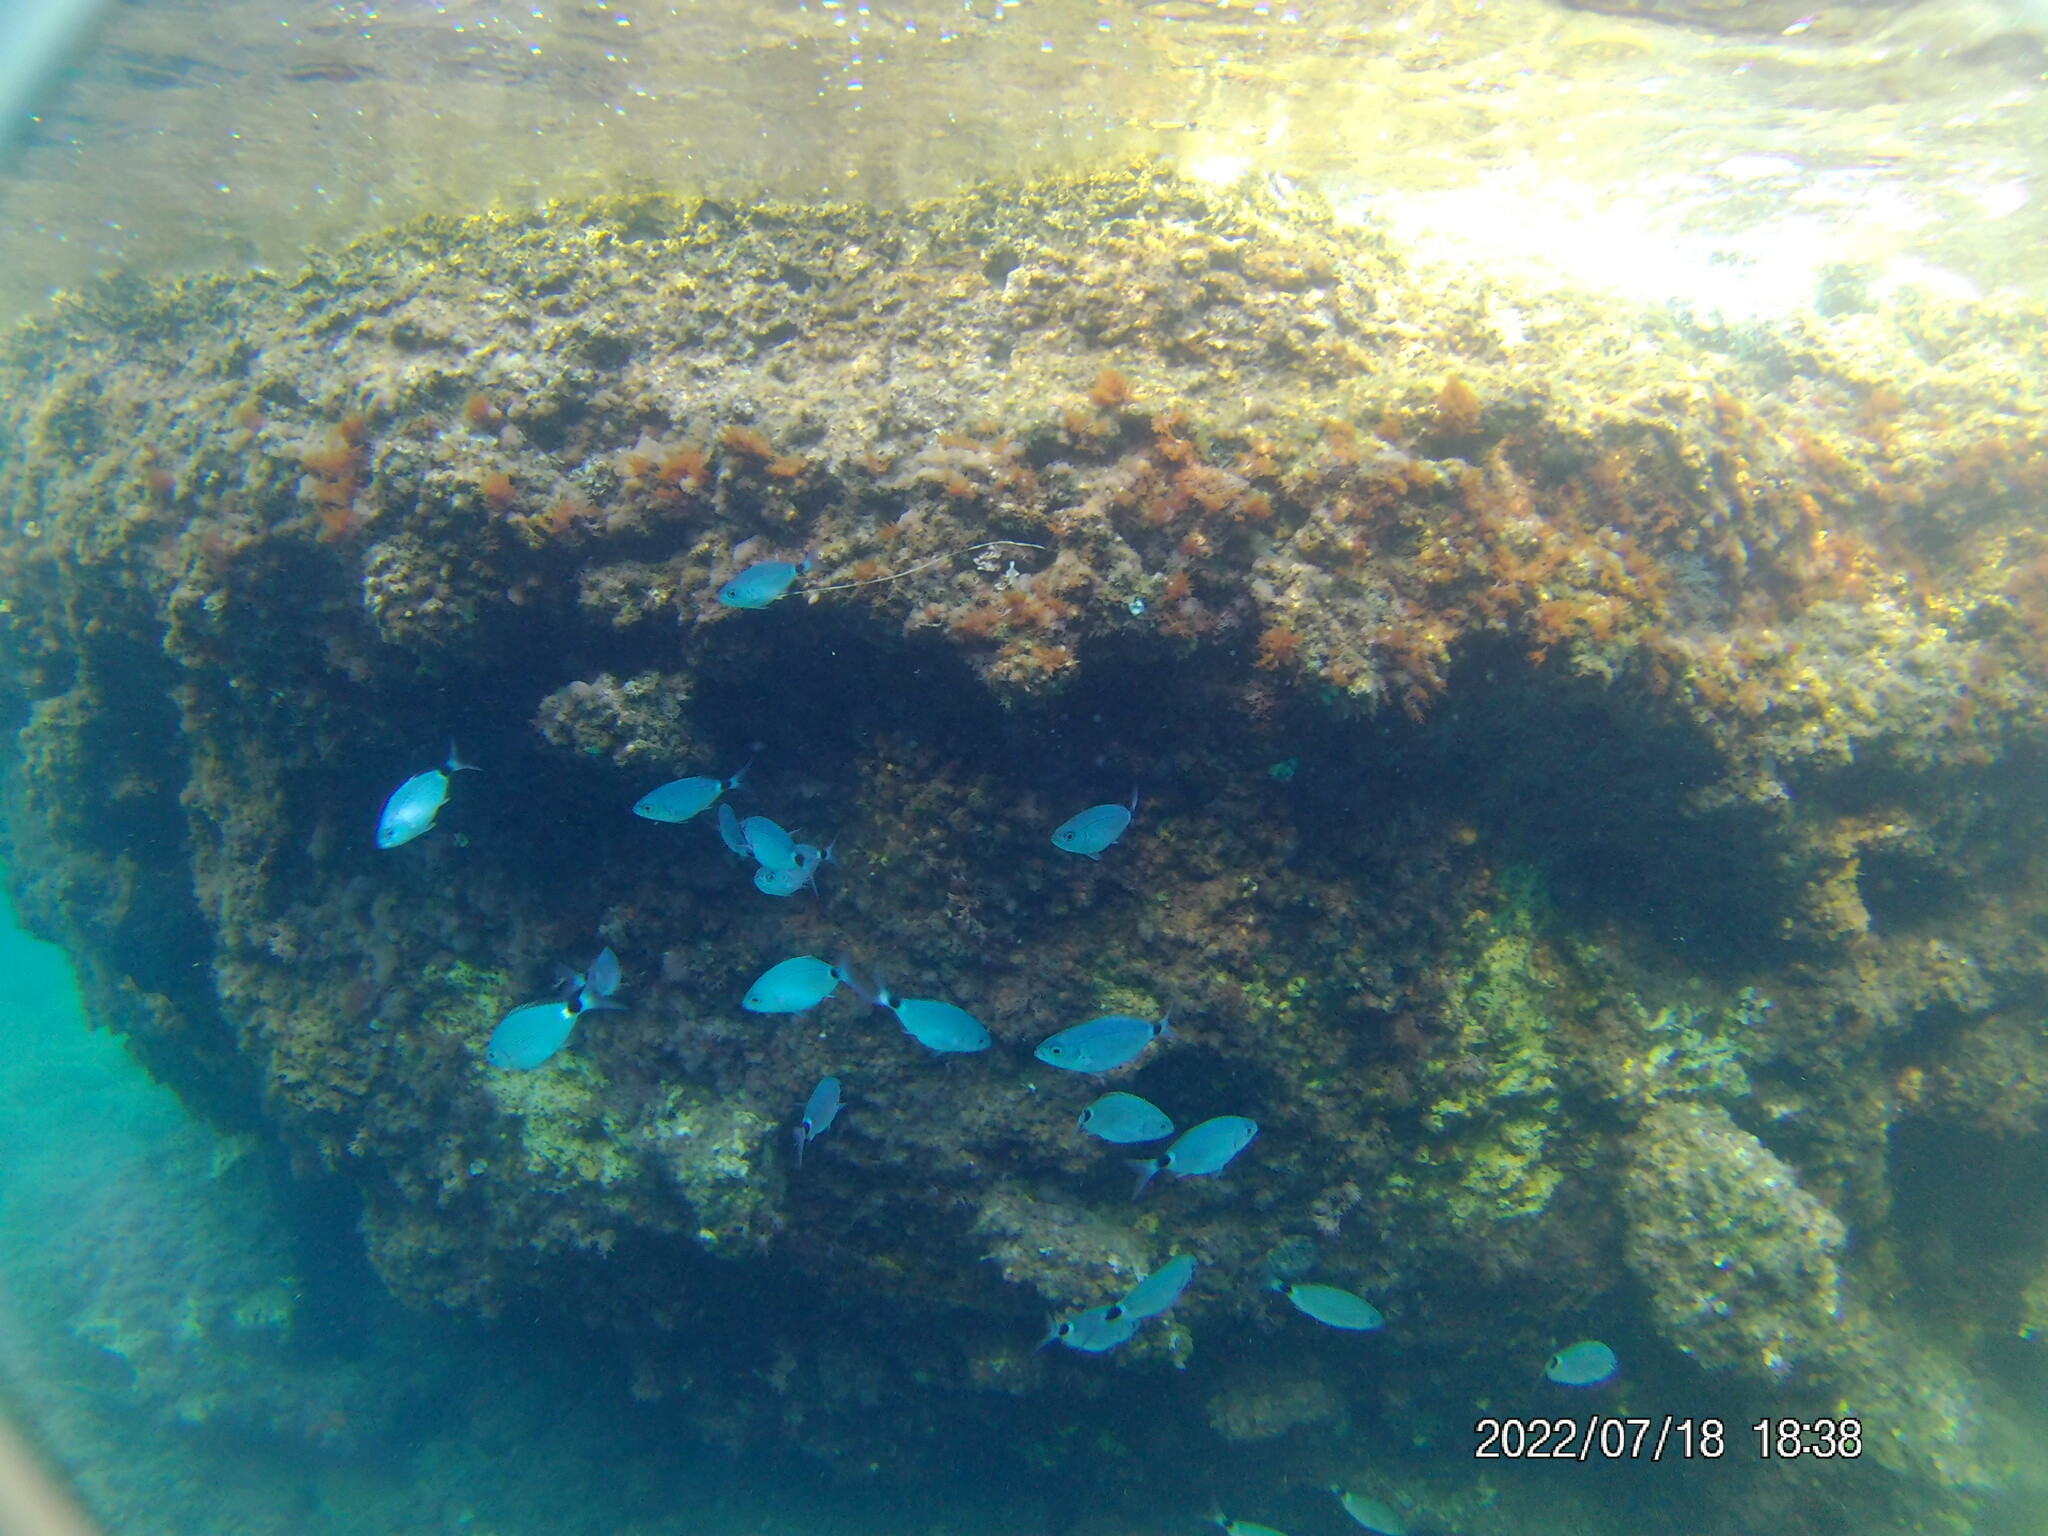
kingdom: Animalia
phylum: Chordata
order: Perciformes
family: Sparidae
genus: Oblada
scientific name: Oblada melanura
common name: Saddled seabream
